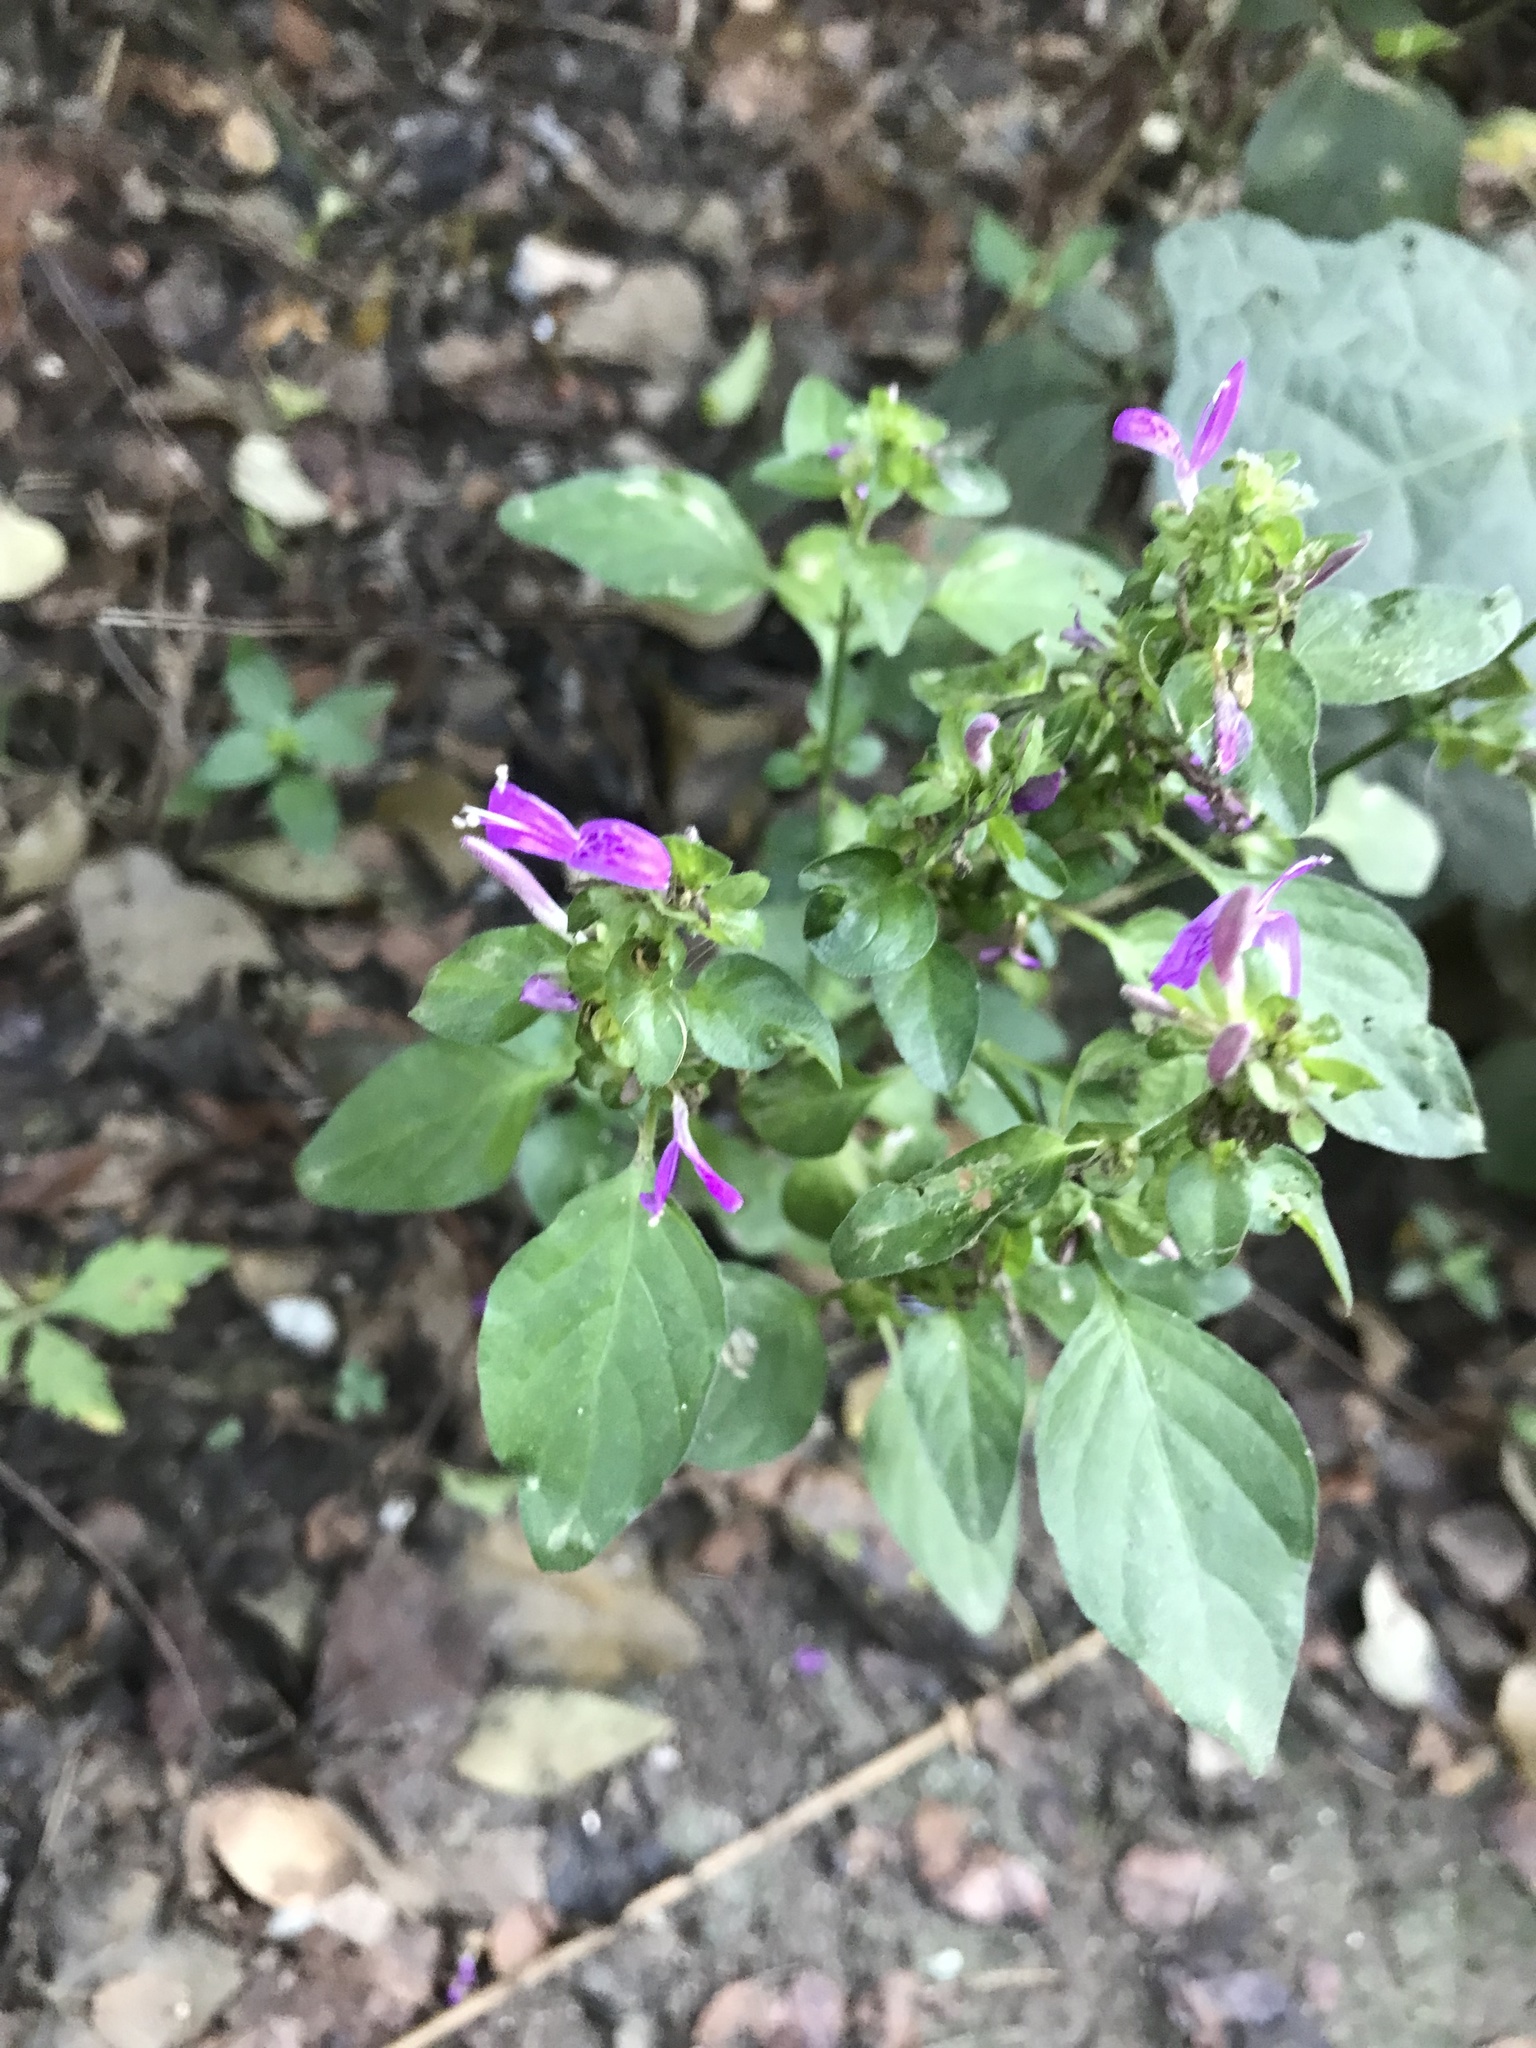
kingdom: Plantae
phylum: Tracheophyta
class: Magnoliopsida
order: Lamiales
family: Acanthaceae
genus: Dicliptera
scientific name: Dicliptera brachiata
